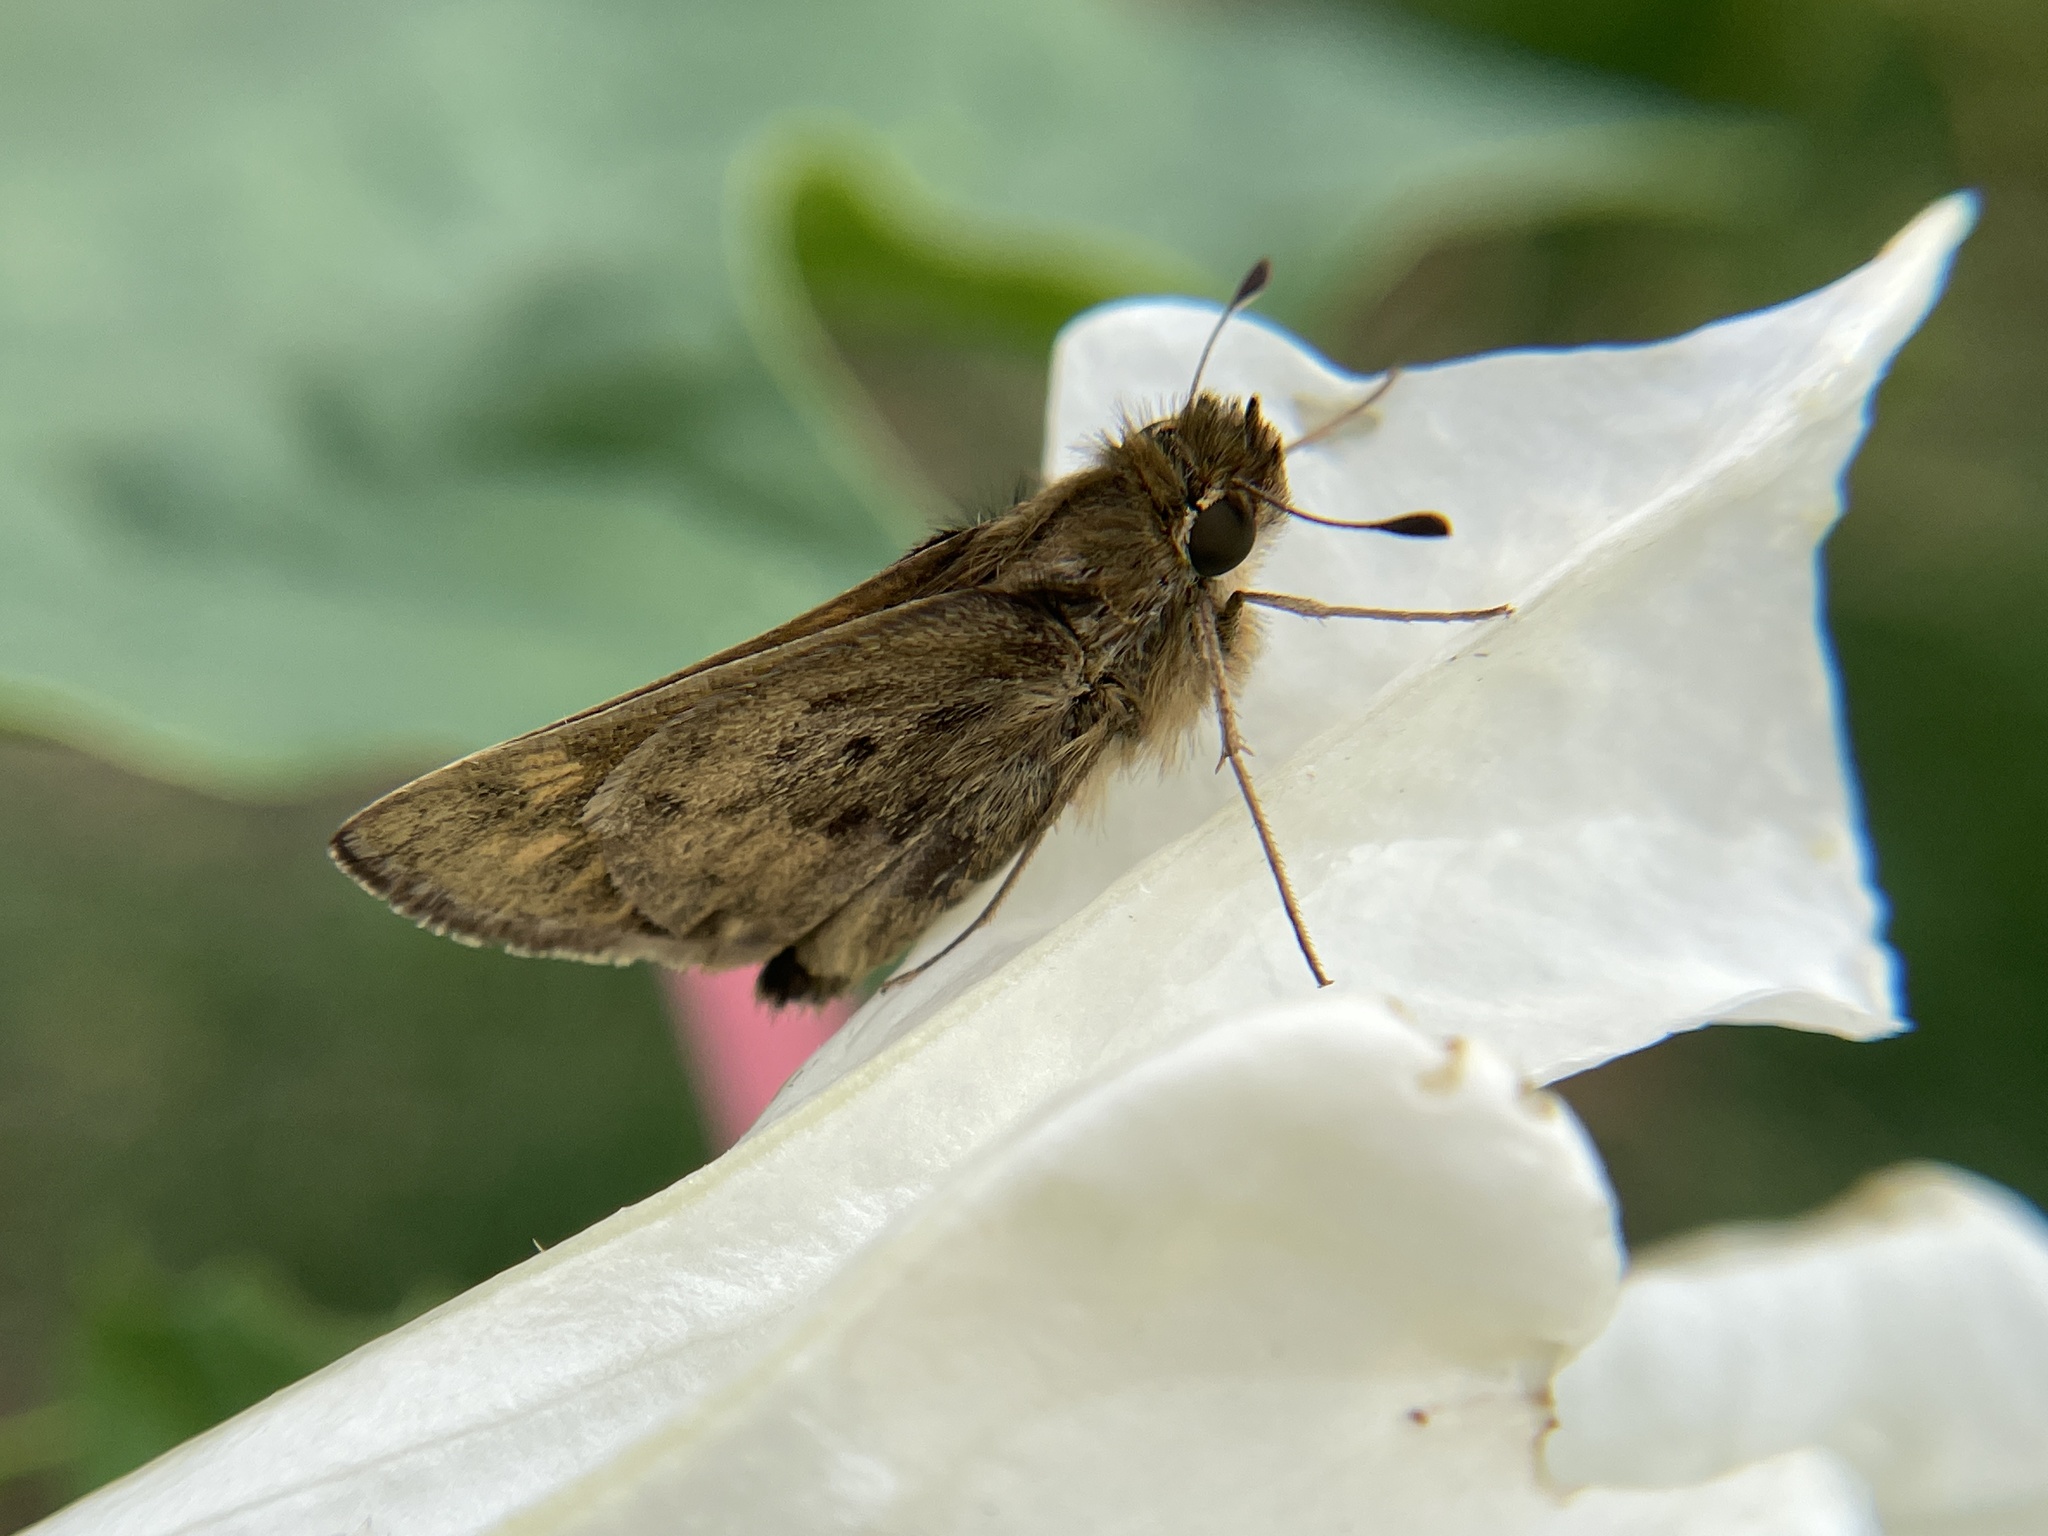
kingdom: Animalia
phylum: Arthropoda
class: Insecta
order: Lepidoptera
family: Hesperiidae
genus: Hylephila
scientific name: Hylephila phyleus
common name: Fiery skipper
